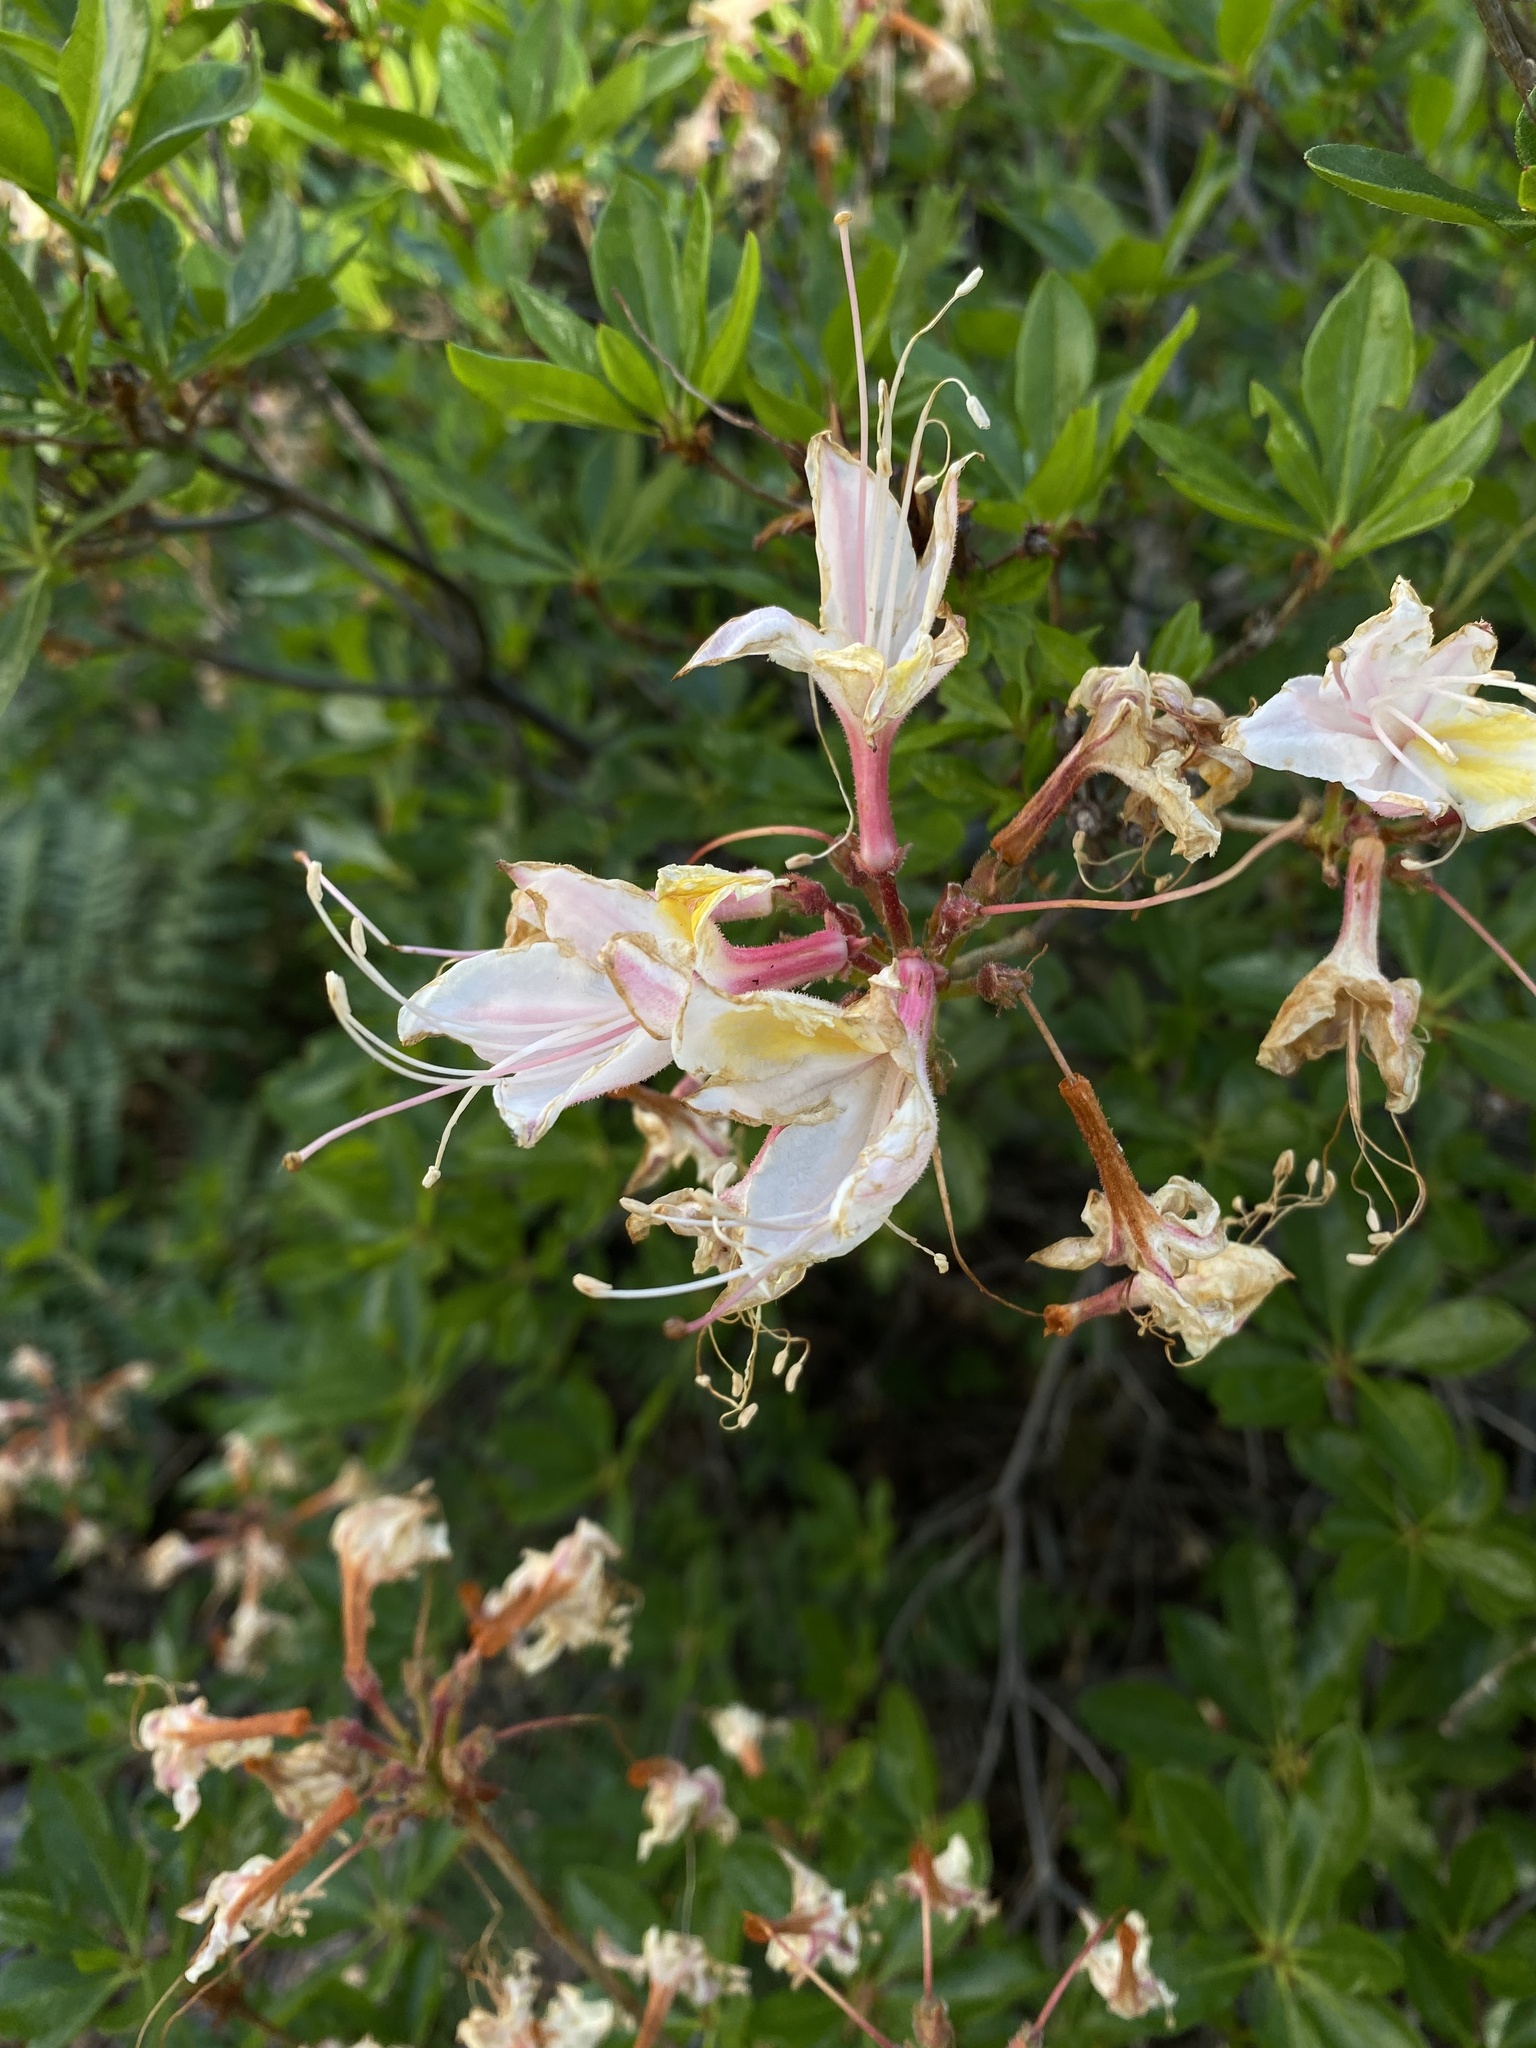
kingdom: Plantae
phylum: Tracheophyta
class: Magnoliopsida
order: Ericales
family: Ericaceae
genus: Rhododendron
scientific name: Rhododendron occidentale
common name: Western azalea
